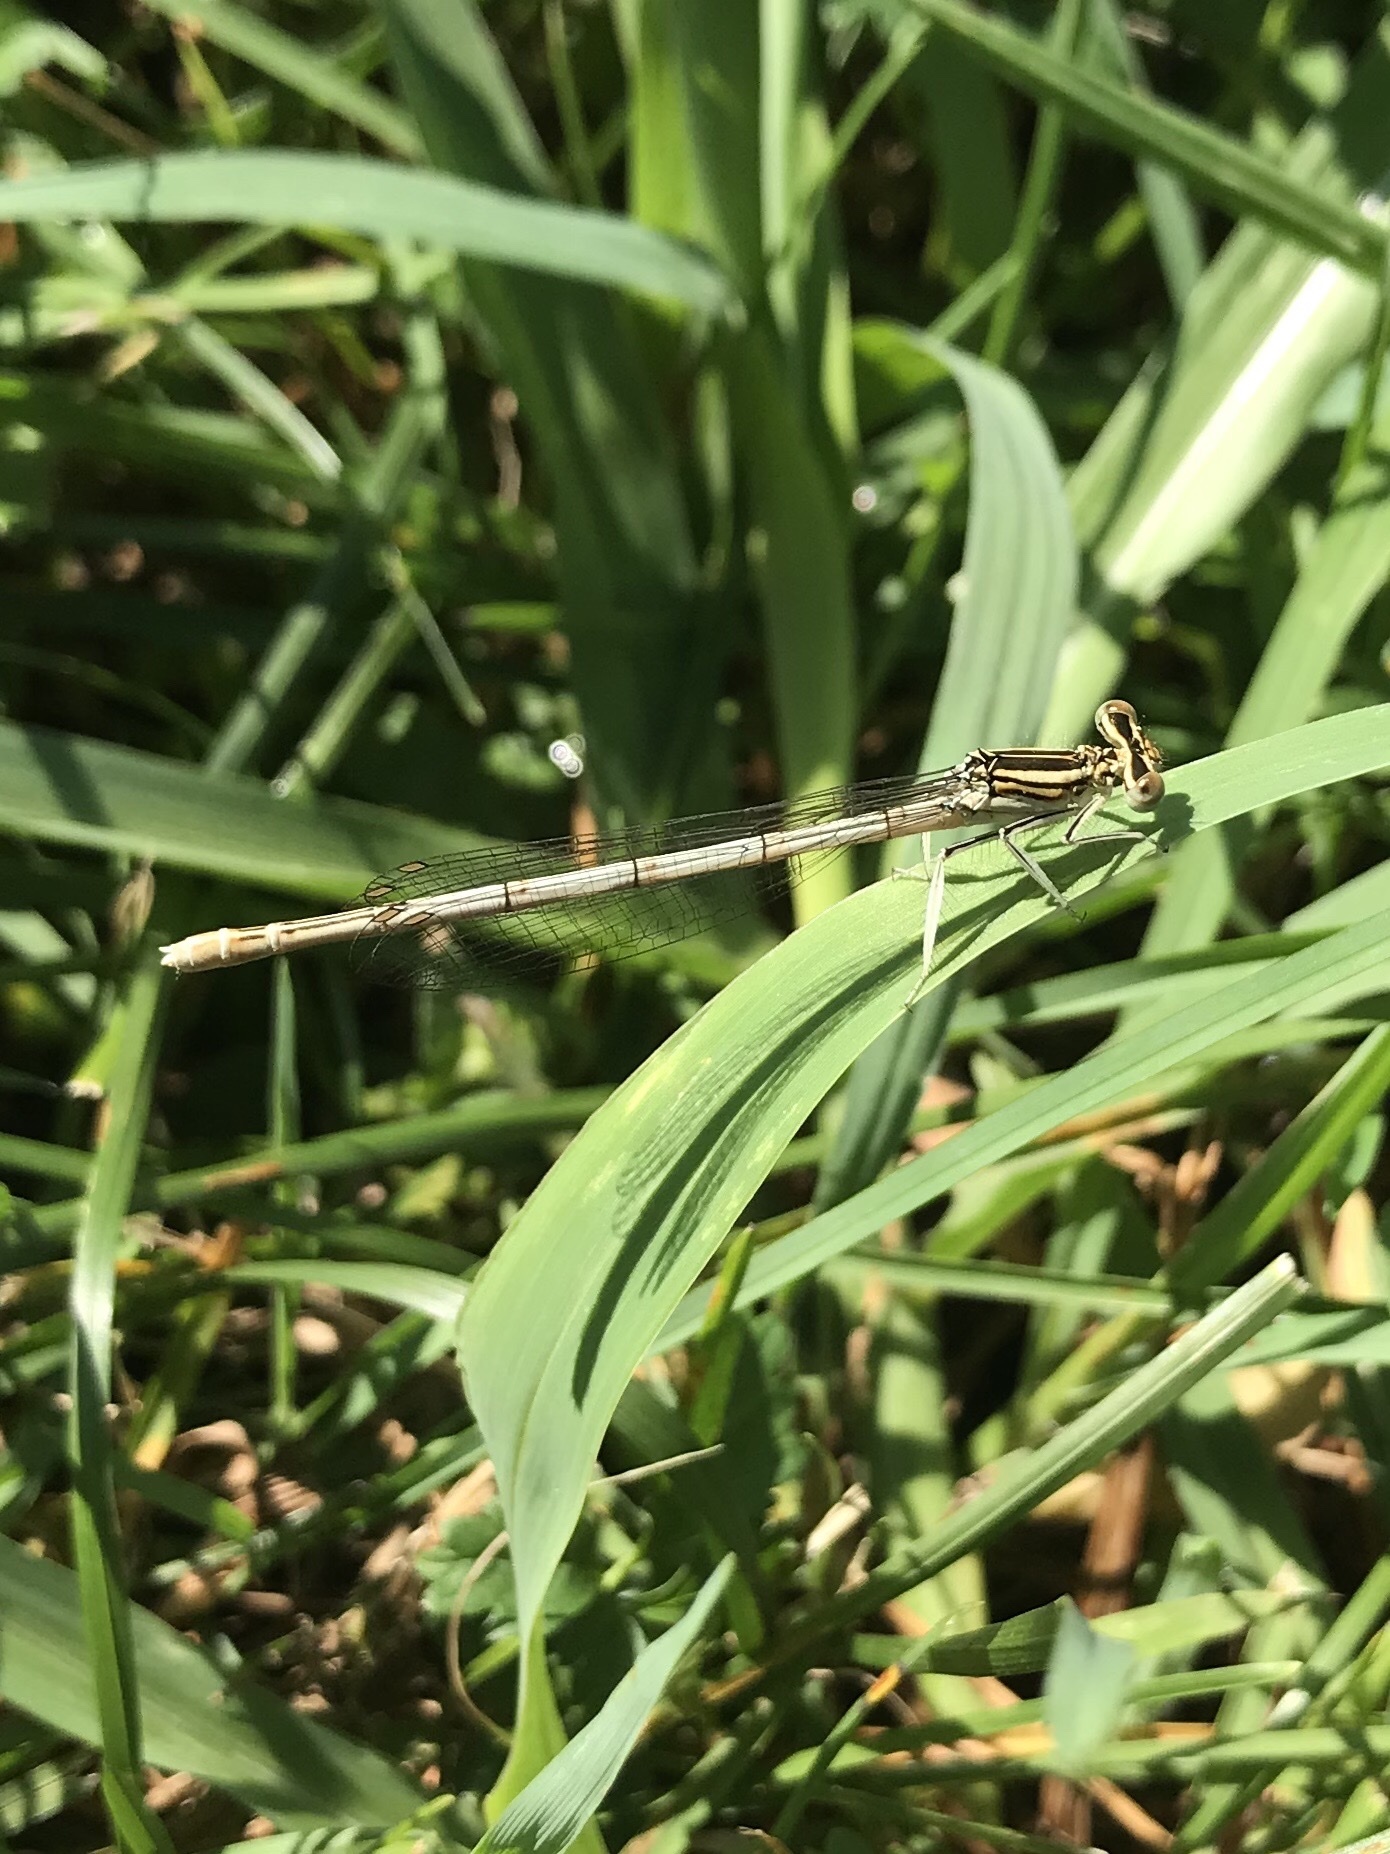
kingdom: Animalia
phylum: Arthropoda
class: Insecta
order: Odonata
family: Platycnemididae
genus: Platycnemis
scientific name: Platycnemis pennipes
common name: White-legged damselfly
